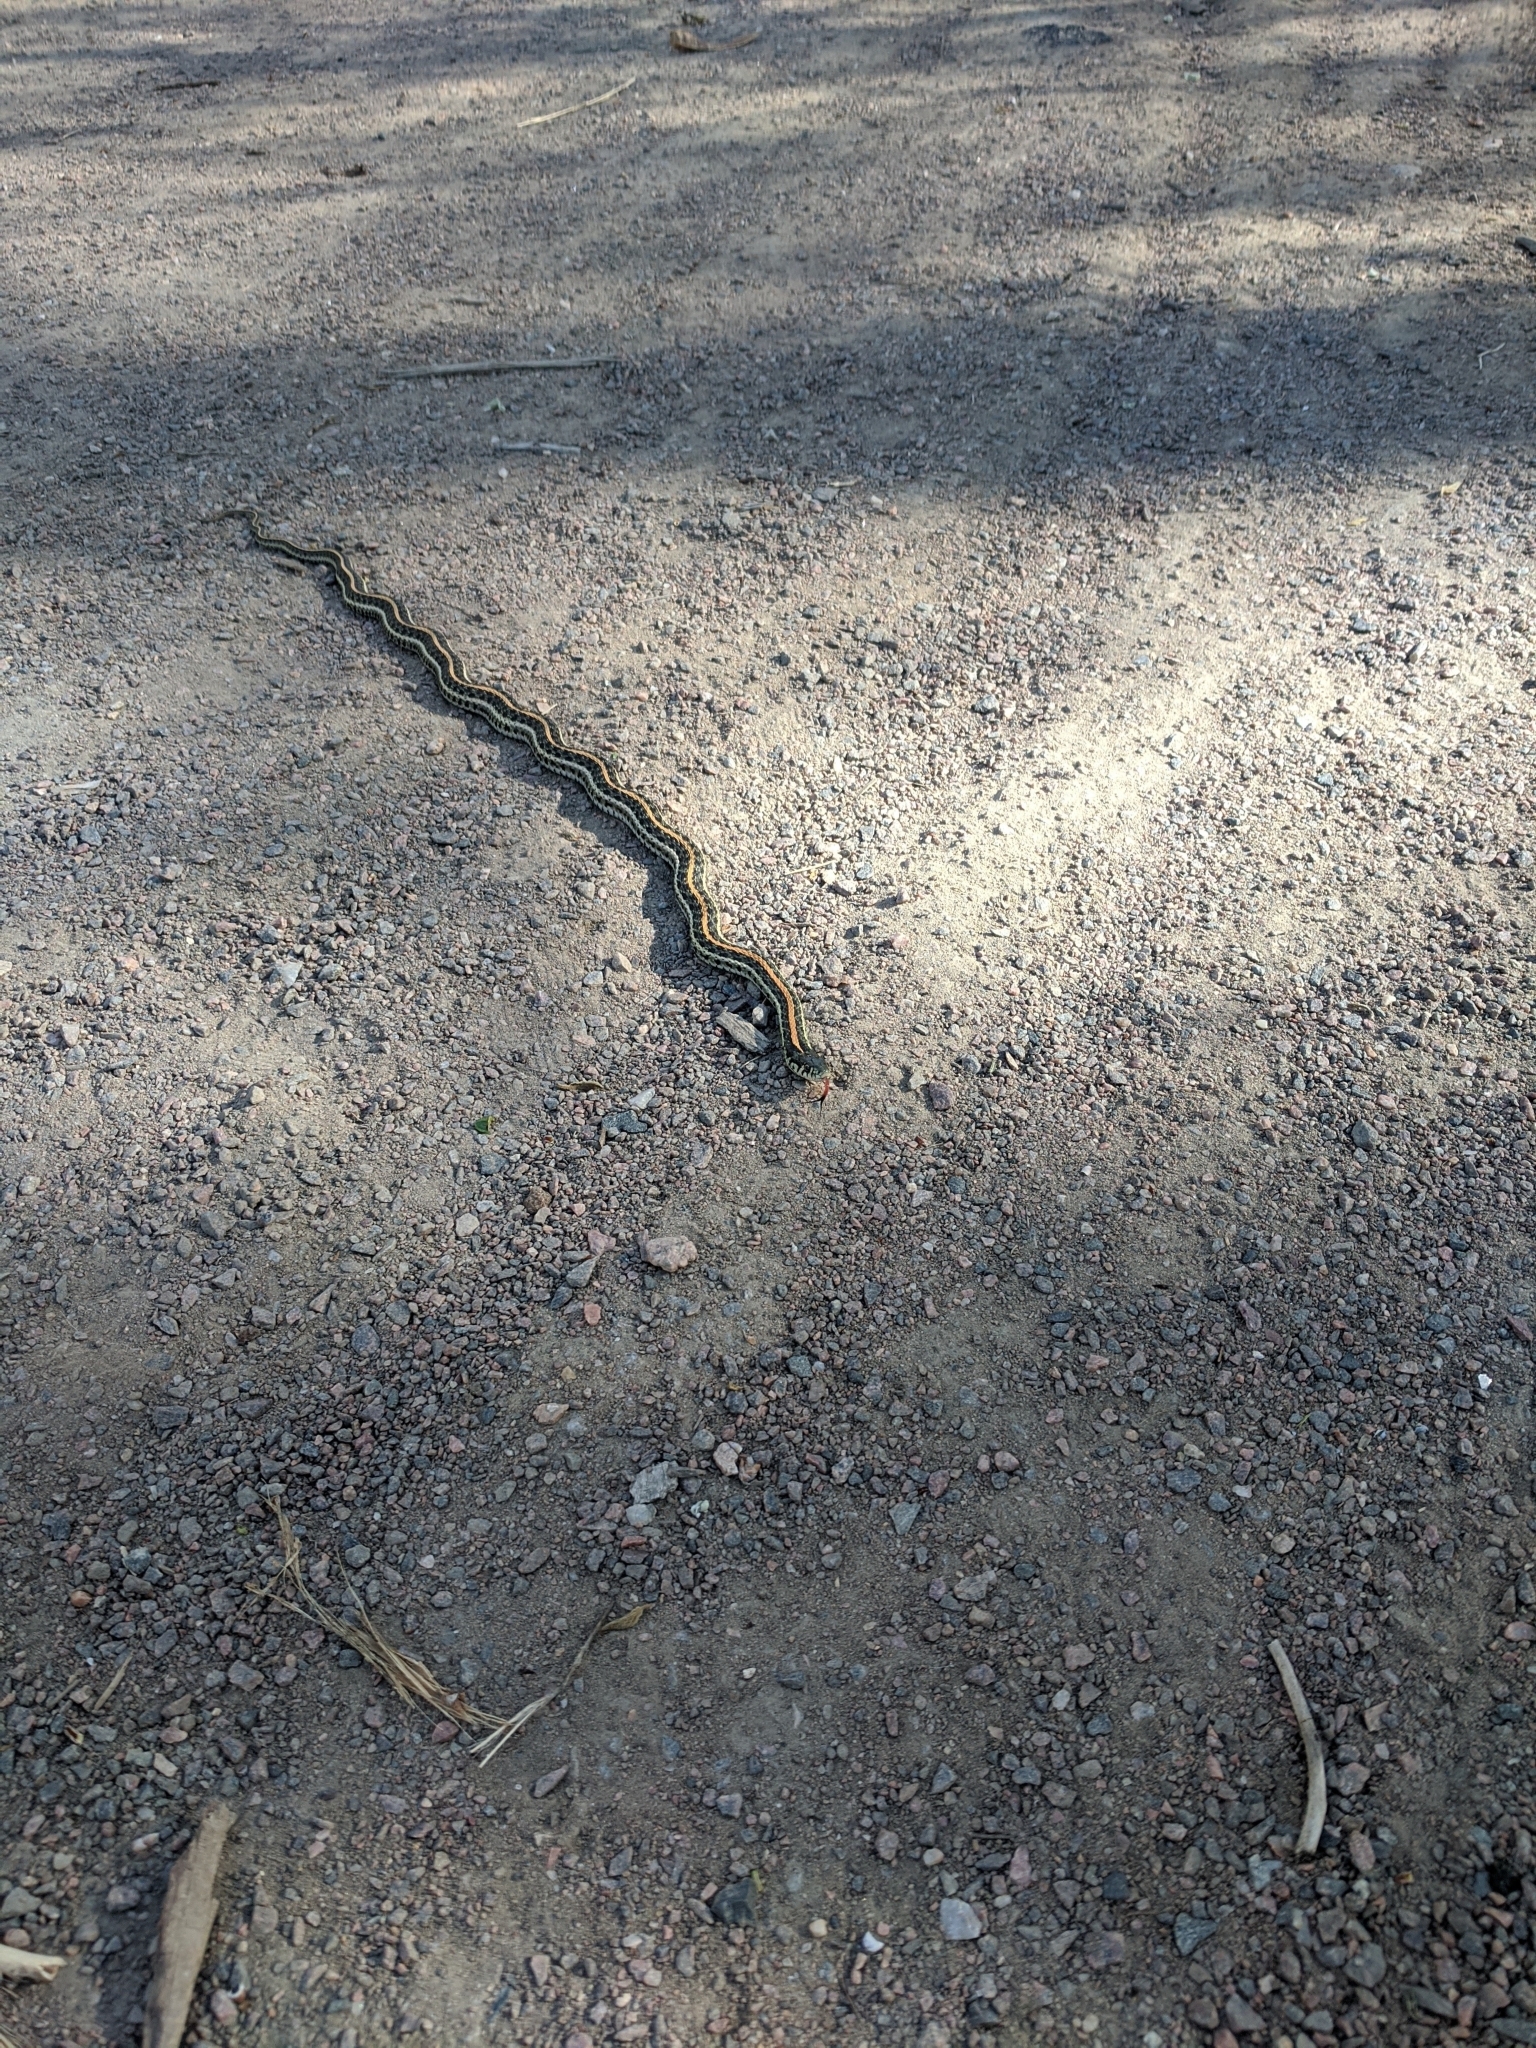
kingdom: Animalia
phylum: Chordata
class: Squamata
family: Colubridae
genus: Thamnophis
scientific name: Thamnophis radix
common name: Plains garter snake
